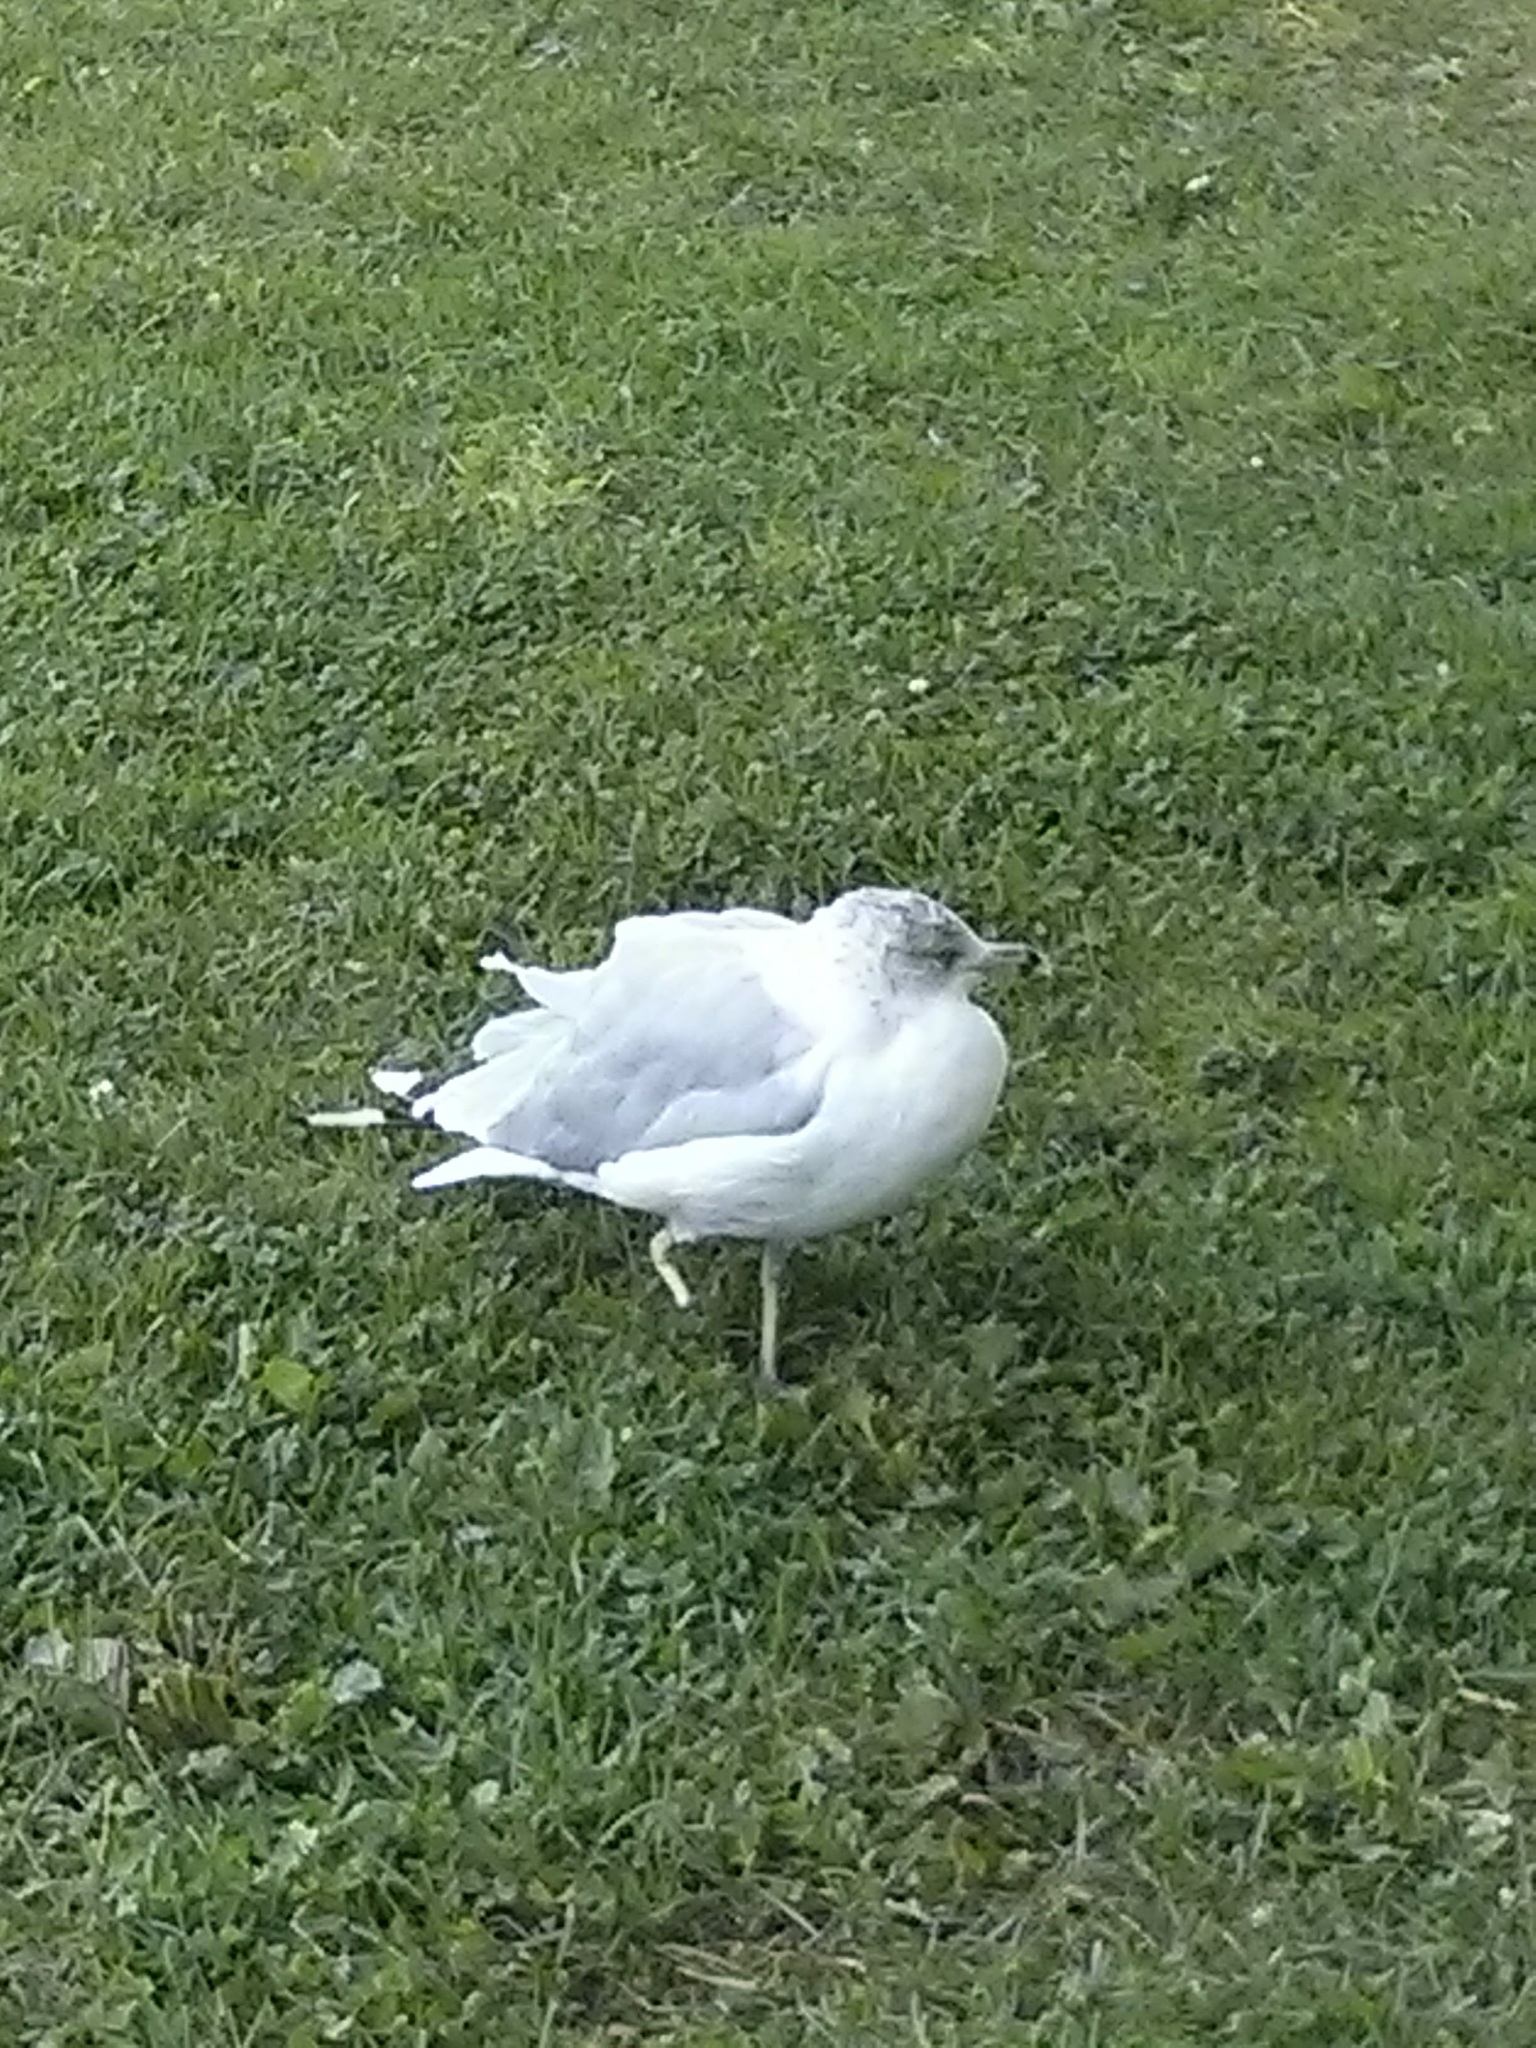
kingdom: Animalia
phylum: Chordata
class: Aves
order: Charadriiformes
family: Laridae
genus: Larus
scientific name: Larus delawarensis
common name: Ring-billed gull
